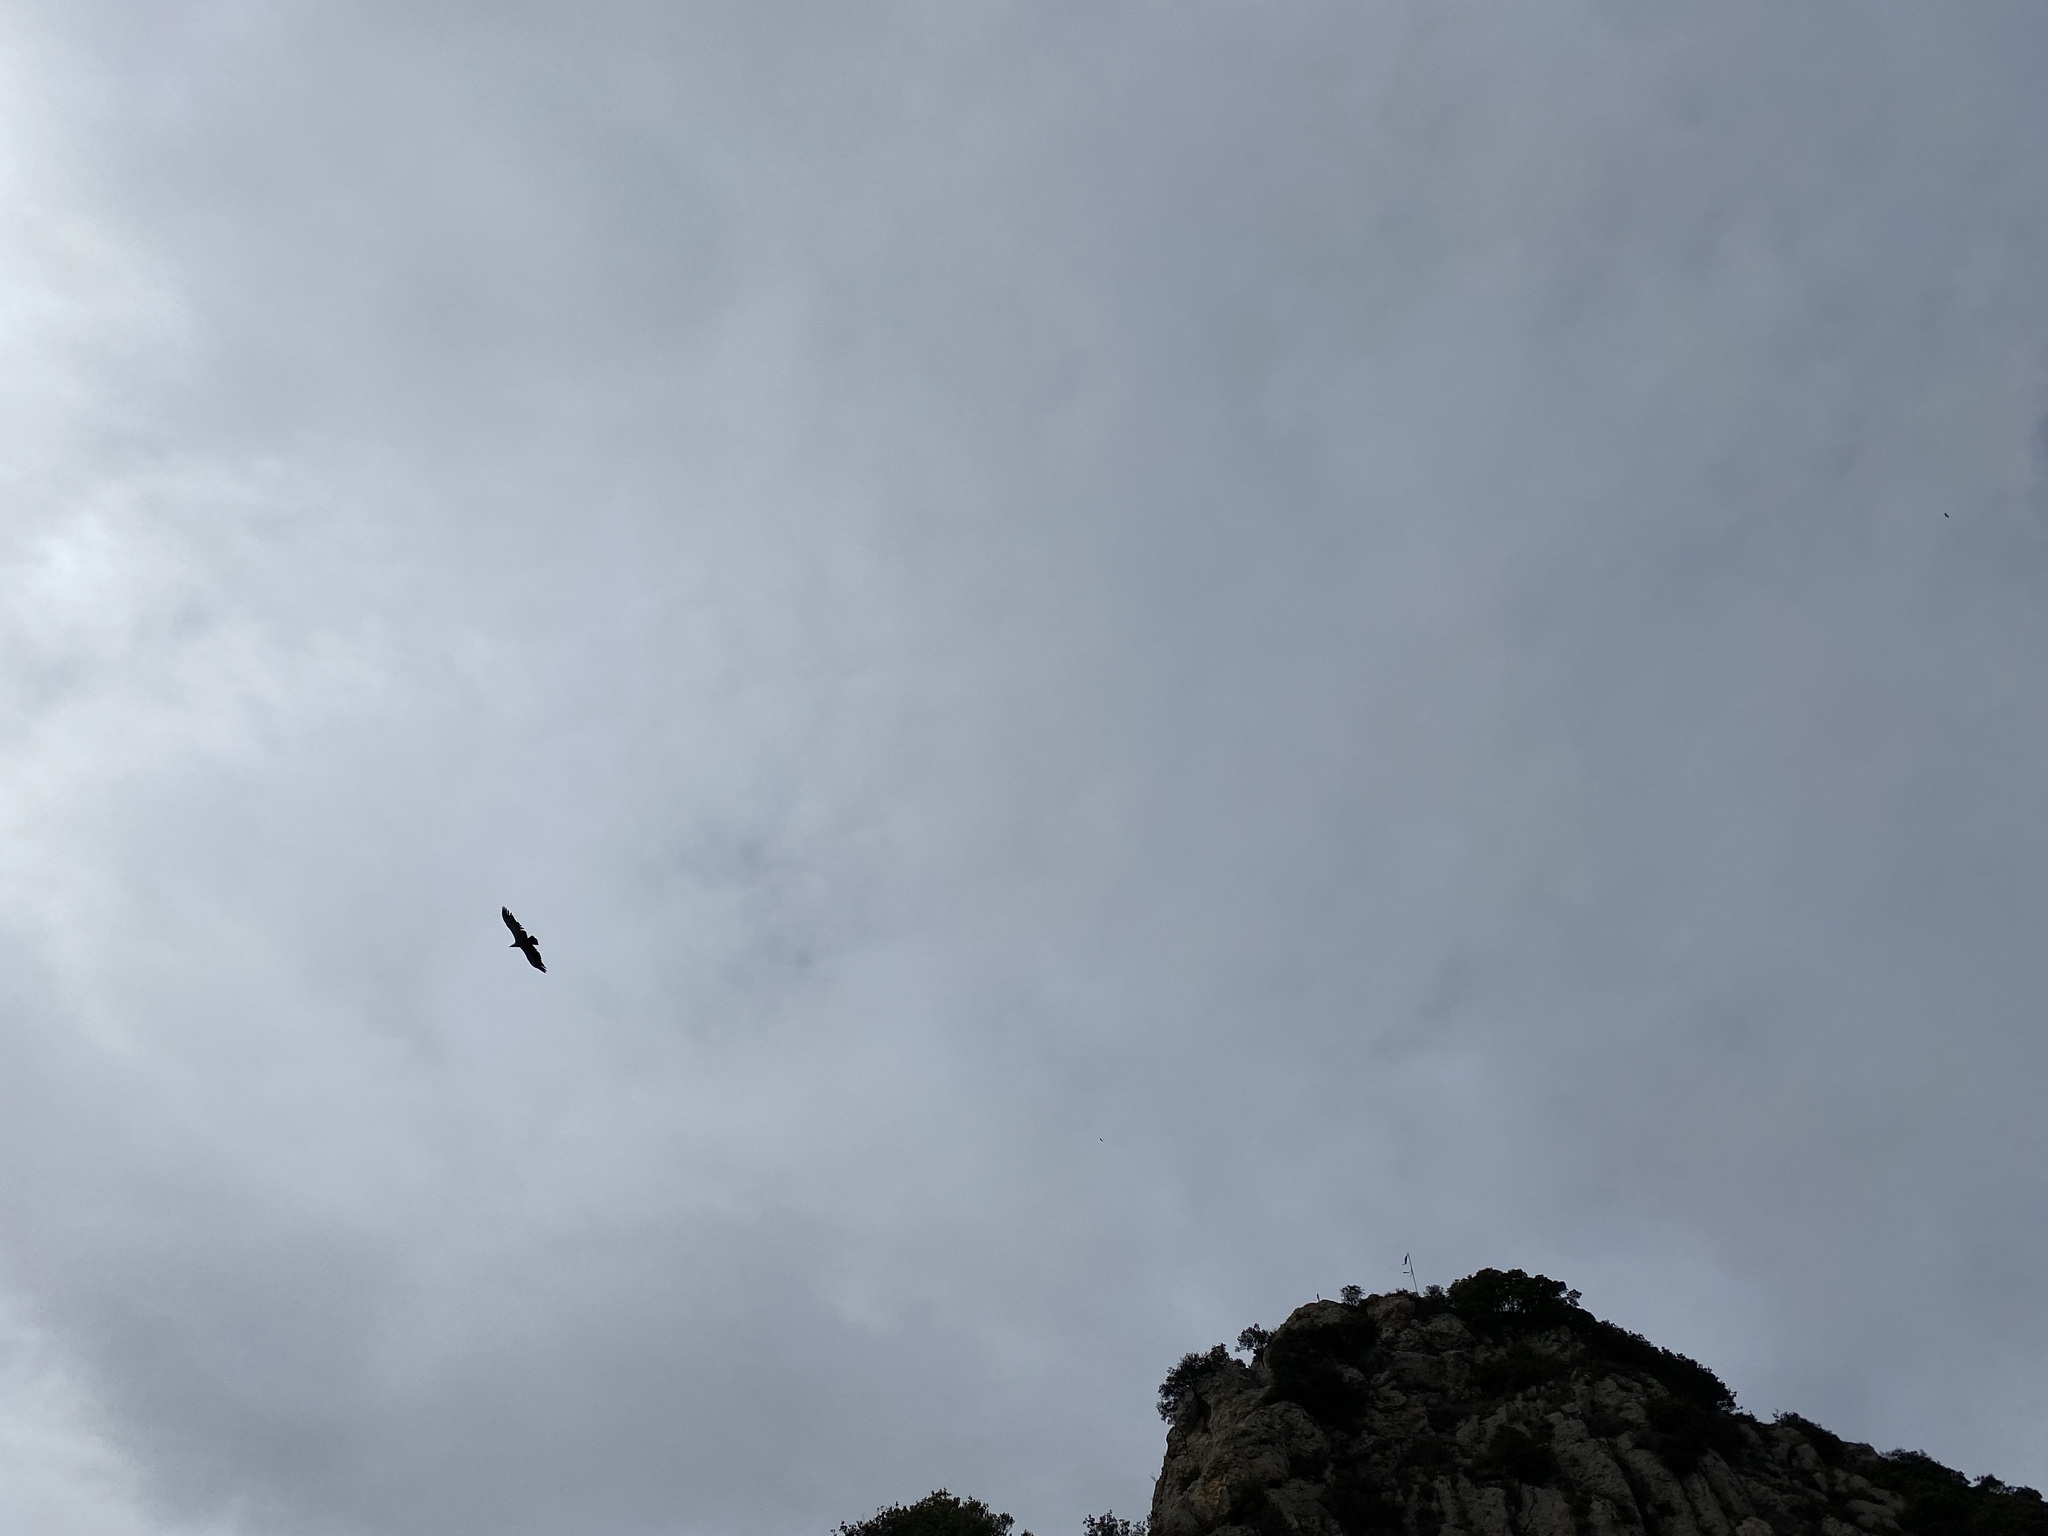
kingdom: Animalia
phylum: Chordata
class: Aves
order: Accipitriformes
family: Accipitridae
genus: Gyps
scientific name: Gyps fulvus
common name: Griffon vulture
